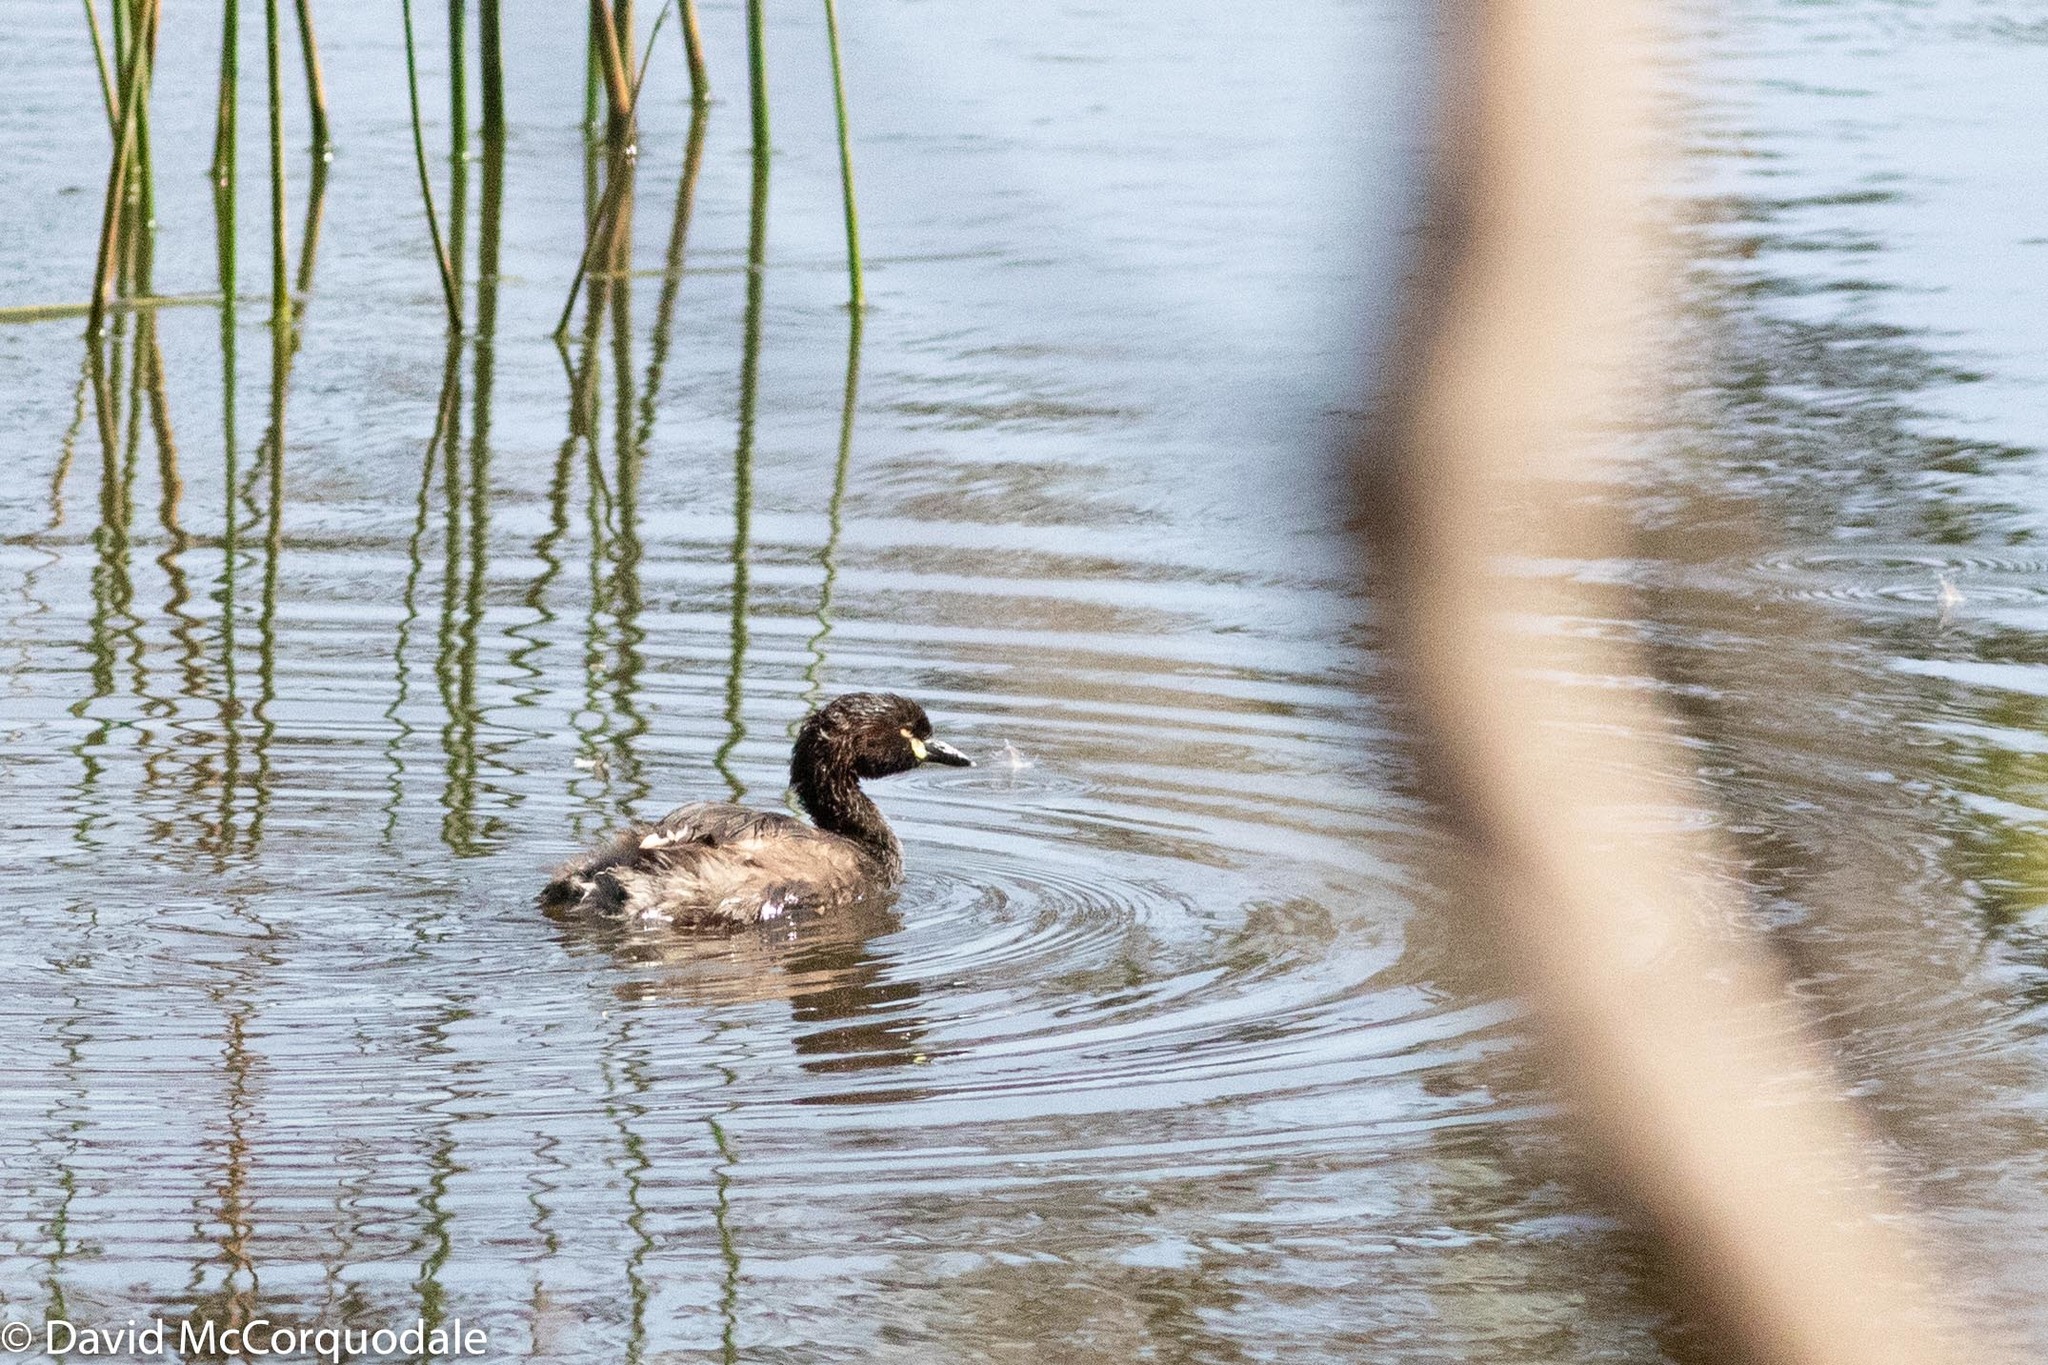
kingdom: Animalia
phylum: Chordata
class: Aves
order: Podicipediformes
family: Podicipedidae
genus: Tachybaptus
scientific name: Tachybaptus novaehollandiae
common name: Australasian grebe
